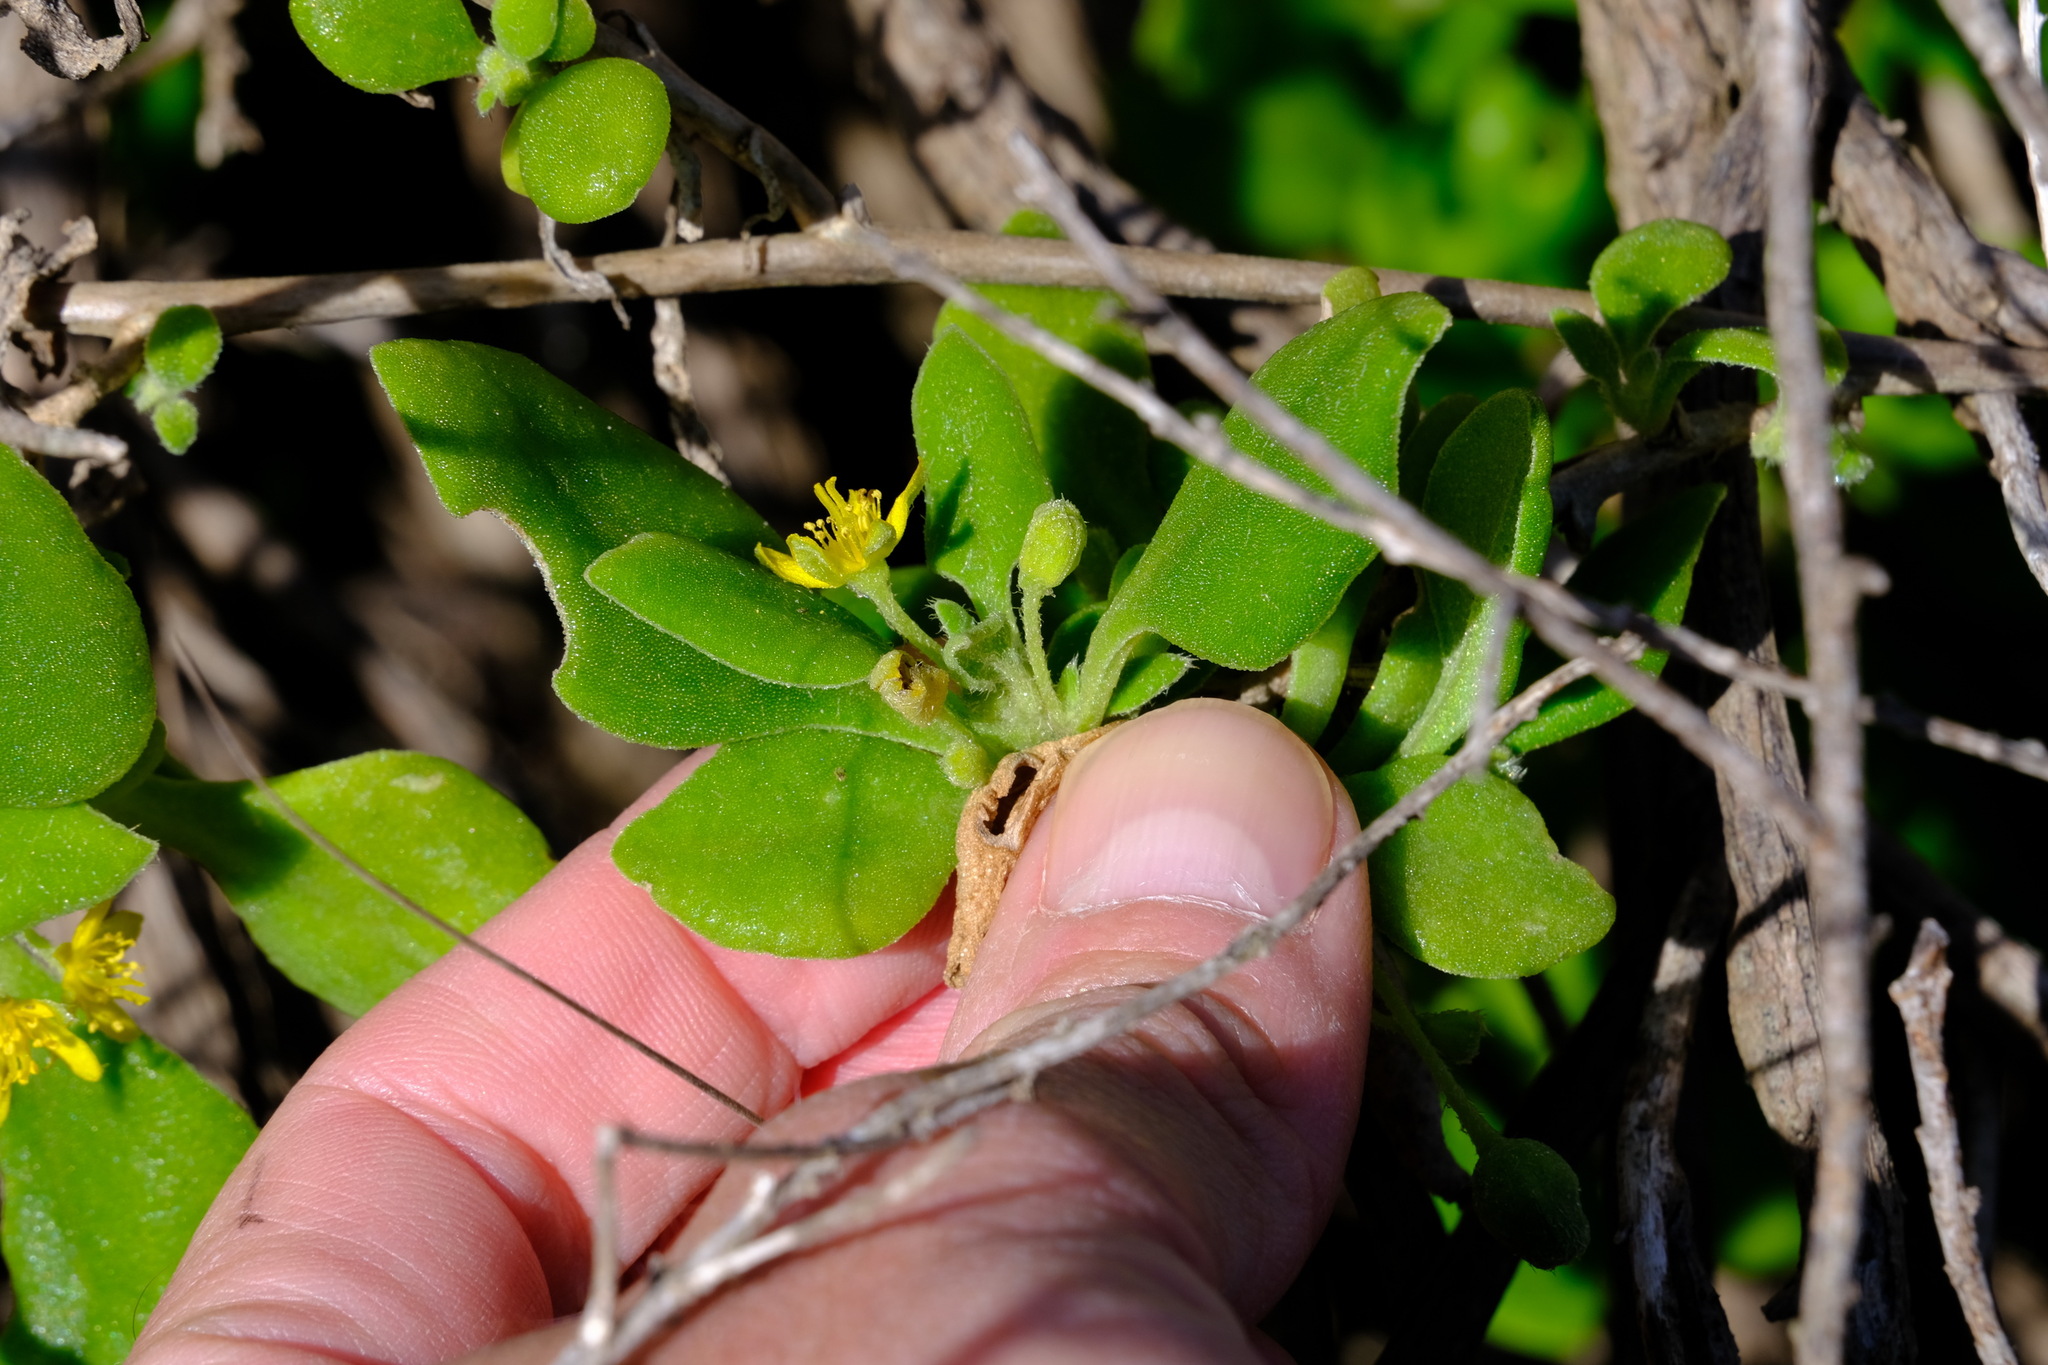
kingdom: Plantae
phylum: Tracheophyta
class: Magnoliopsida
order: Caryophyllales
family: Aizoaceae
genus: Tetragonia
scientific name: Tetragonia implexicoma
